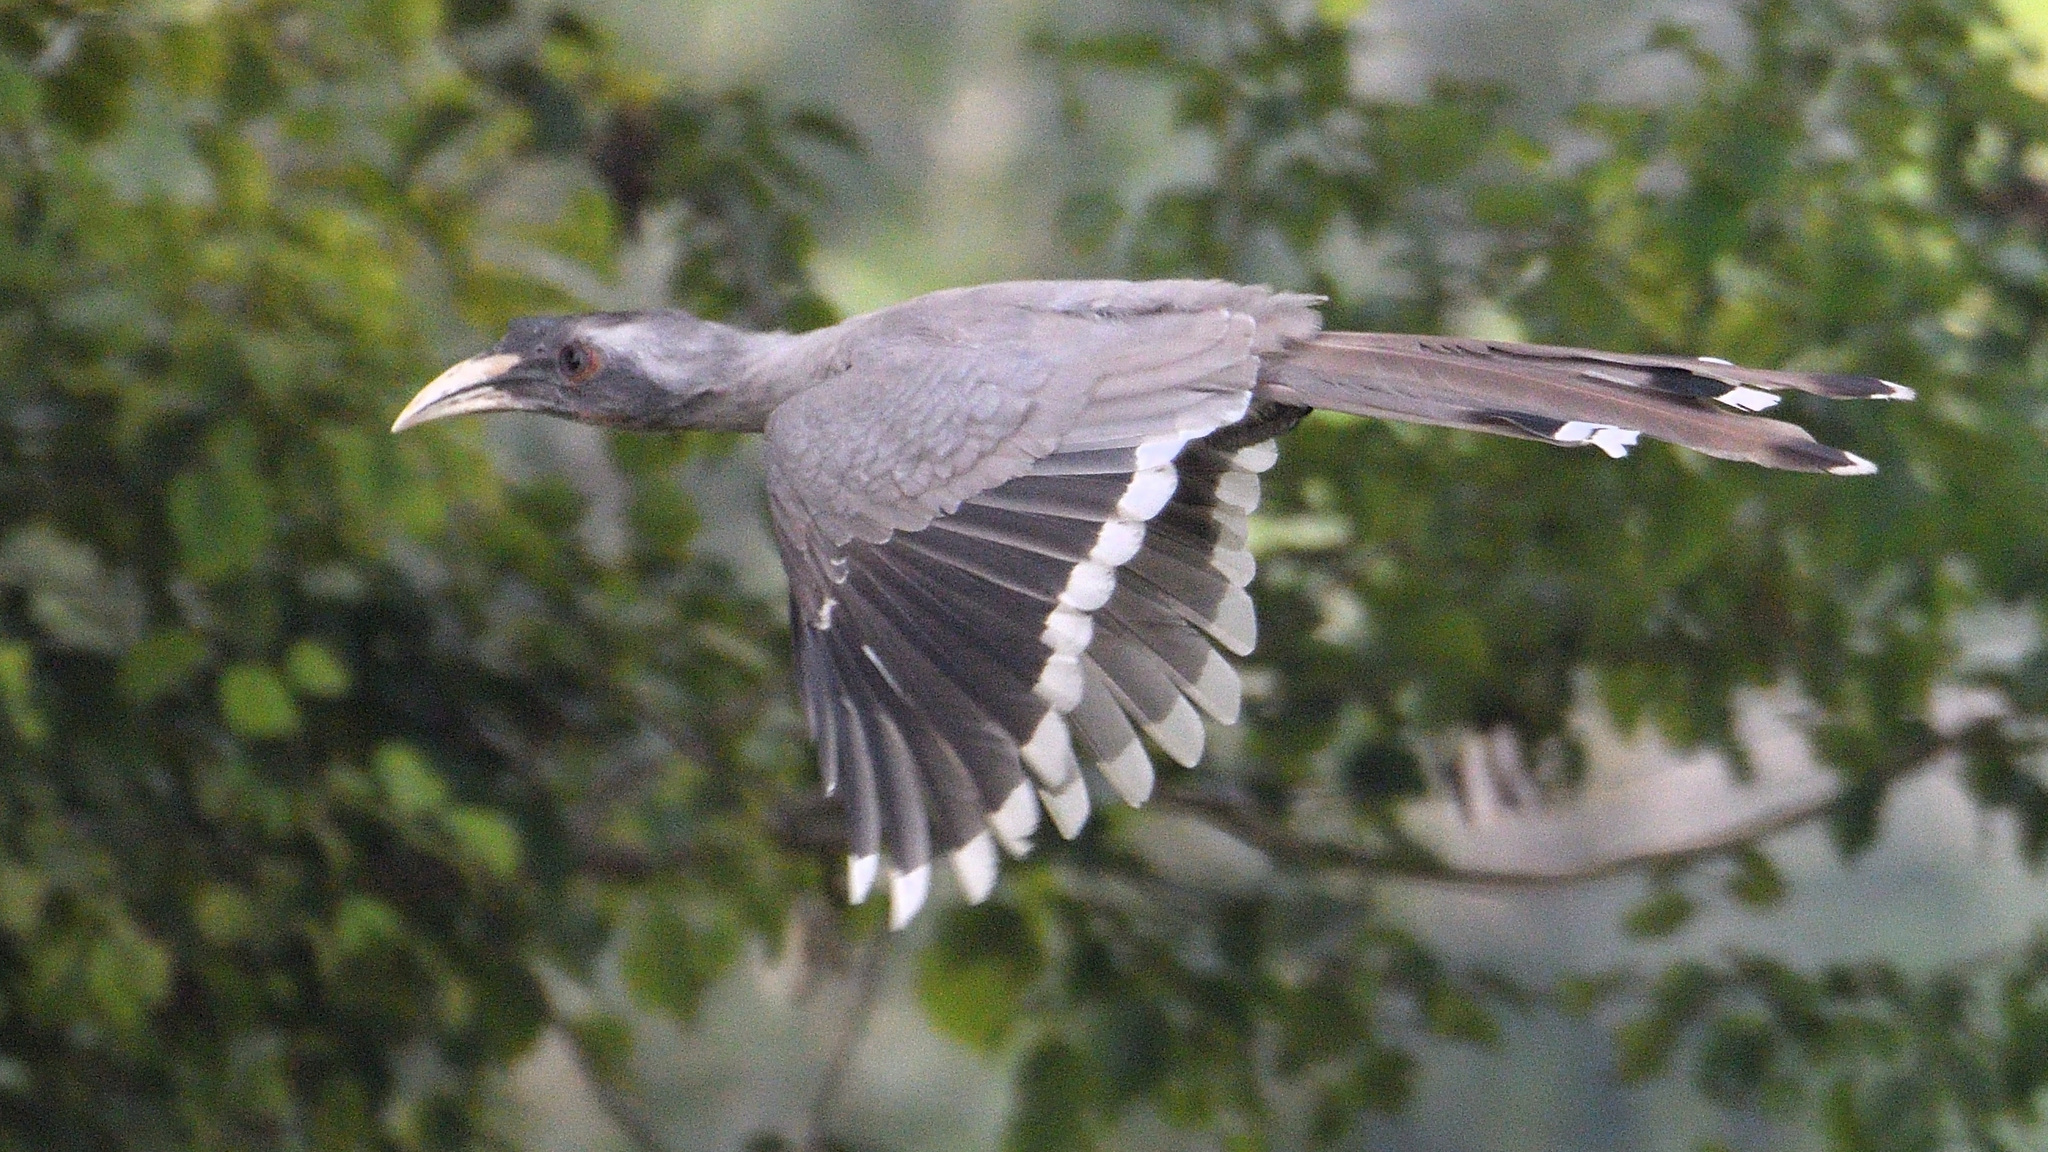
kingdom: Animalia
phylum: Chordata
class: Aves
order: Bucerotiformes
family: Bucerotidae
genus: Ocyceros
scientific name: Ocyceros birostris
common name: Indian grey hornbill
